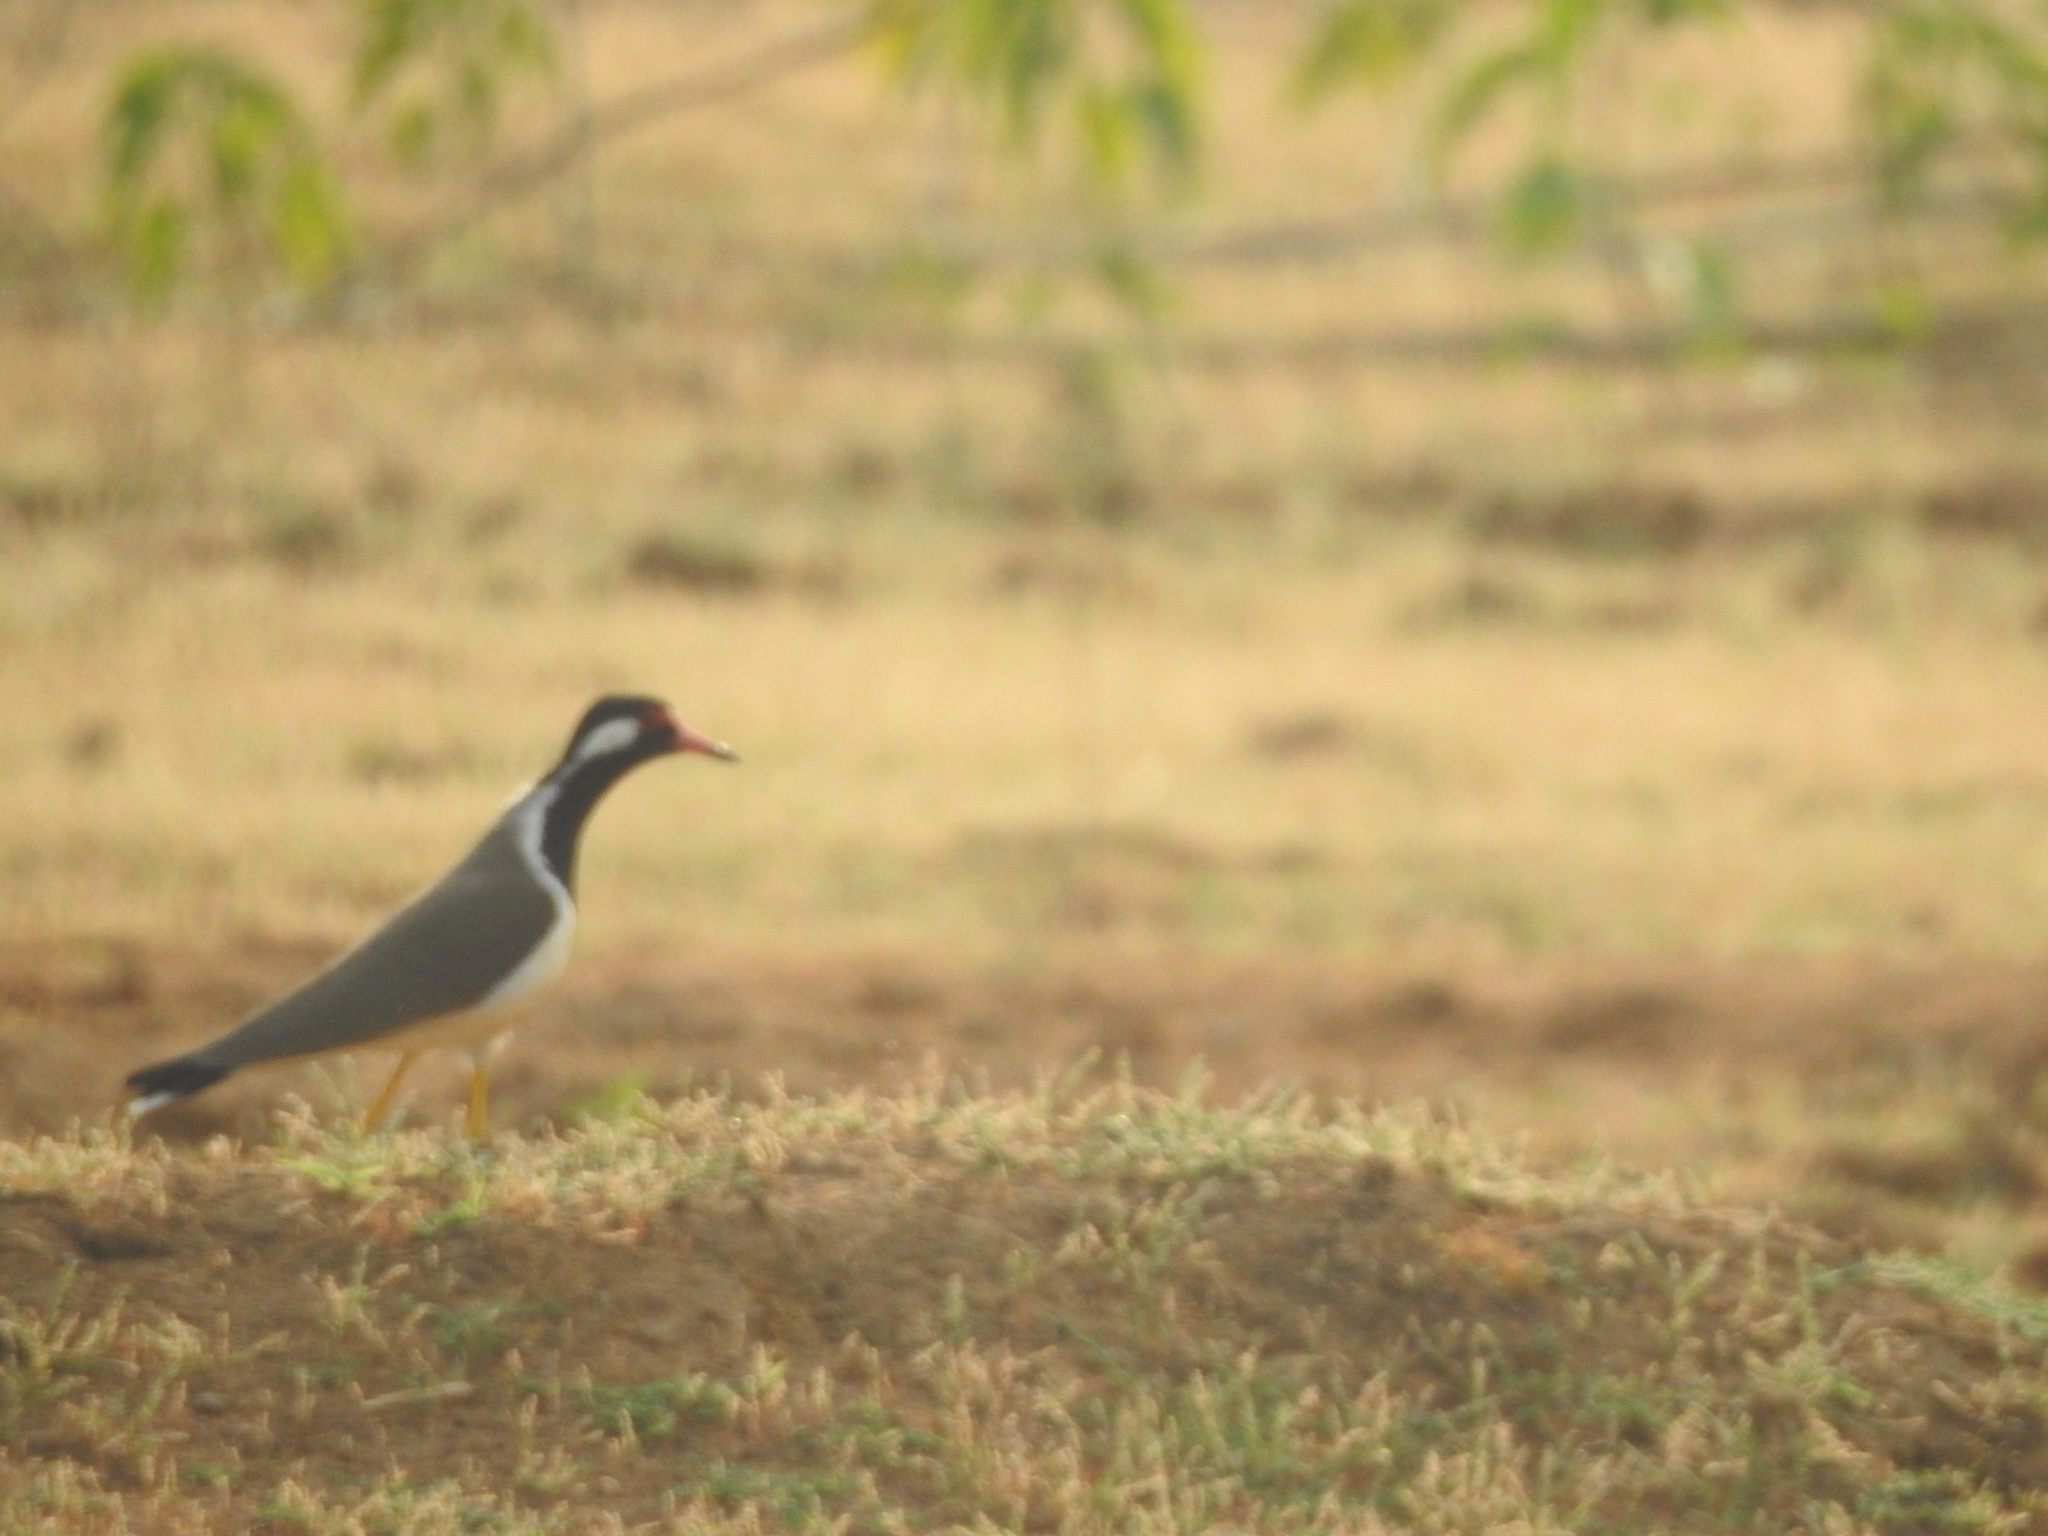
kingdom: Animalia
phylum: Chordata
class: Aves
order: Charadriiformes
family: Charadriidae
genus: Vanellus
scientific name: Vanellus indicus
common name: Red-wattled lapwing
